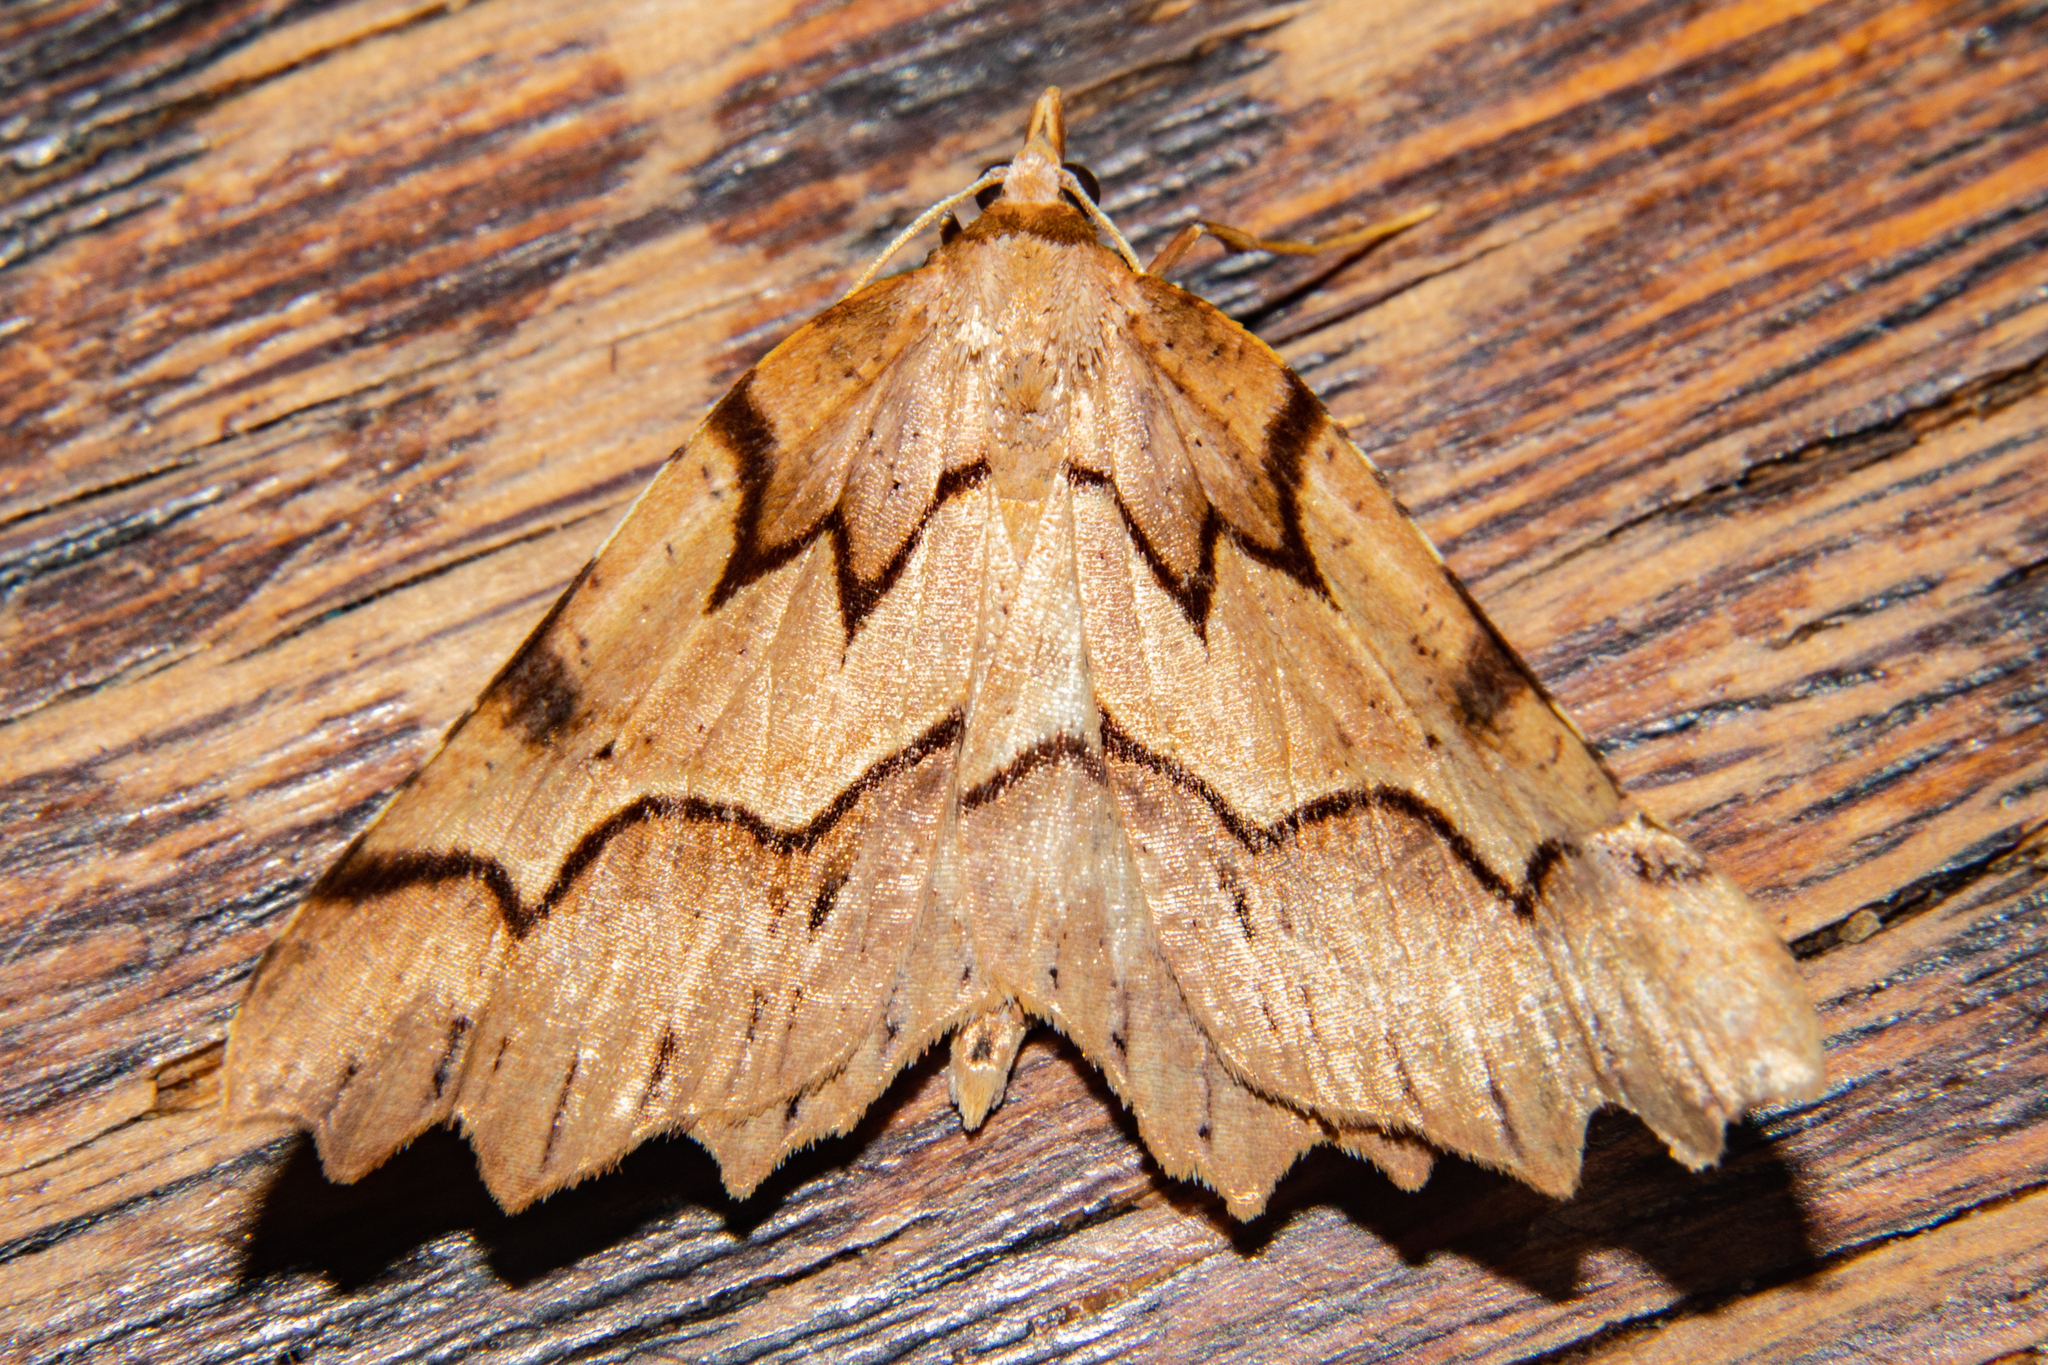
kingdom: Animalia
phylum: Arthropoda
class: Insecta
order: Lepidoptera
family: Geometridae
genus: Ischalis
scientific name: Ischalis fortinata
